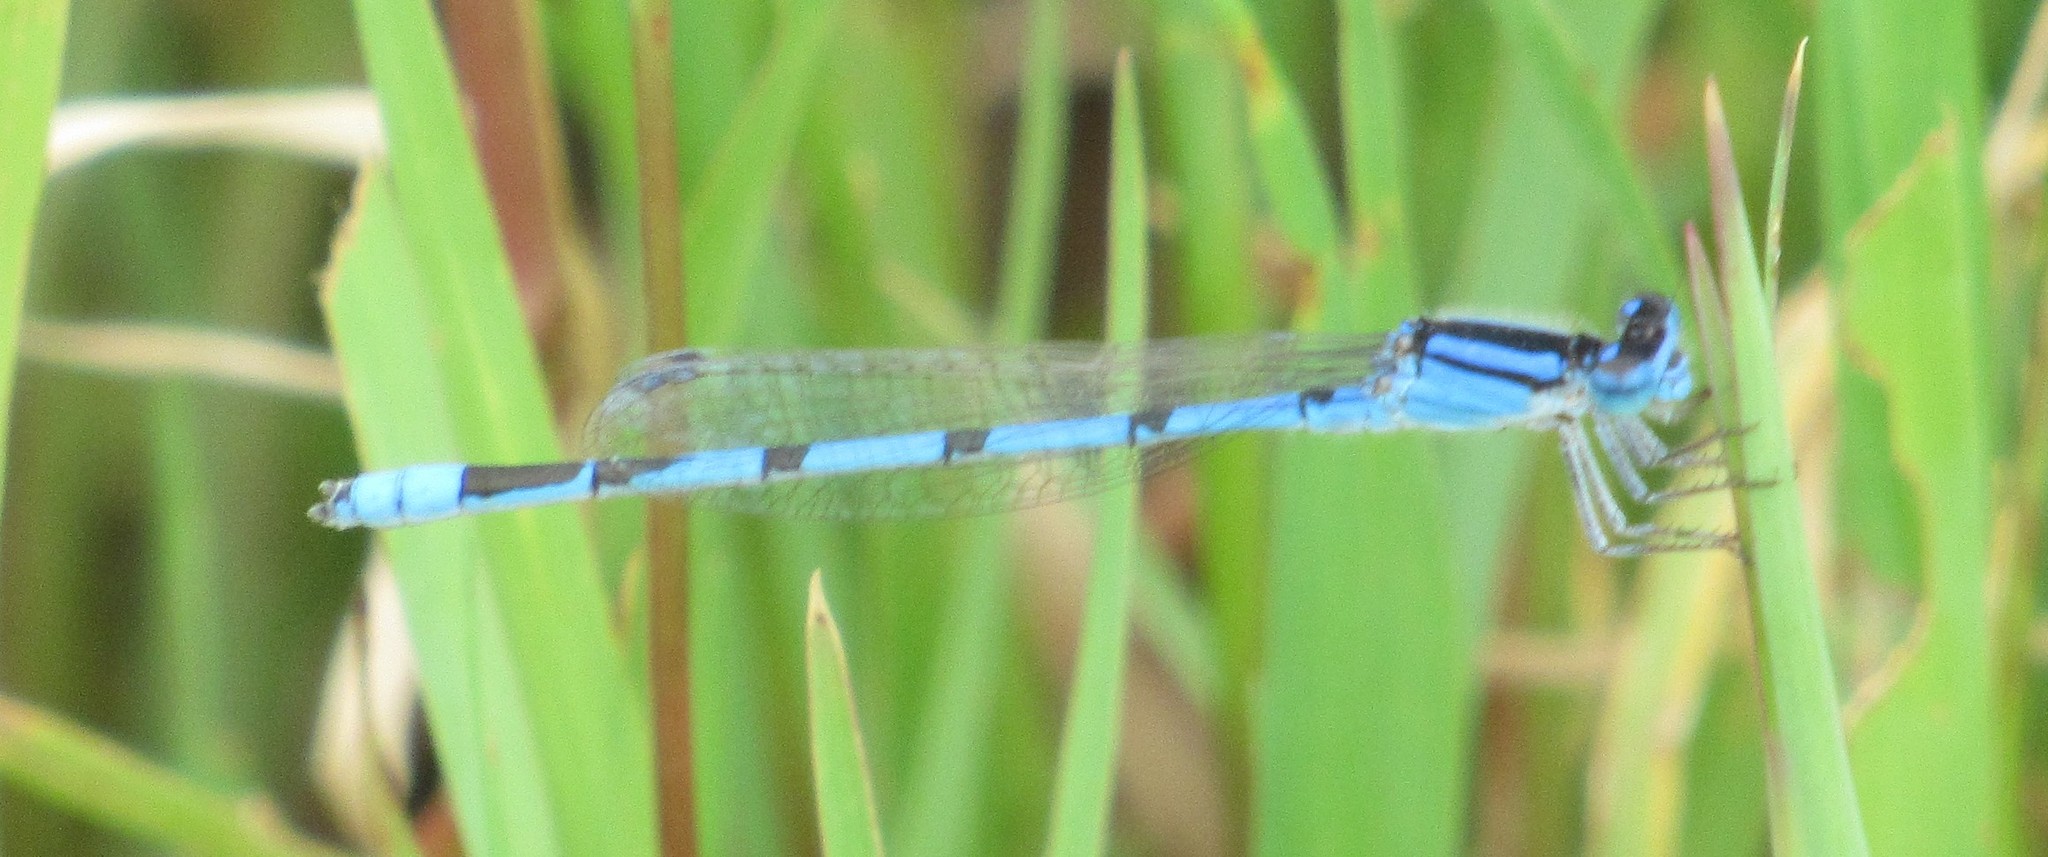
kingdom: Animalia
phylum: Arthropoda
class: Insecta
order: Odonata
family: Coenagrionidae
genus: Enallagma
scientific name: Enallagma civile
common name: Damselfly
